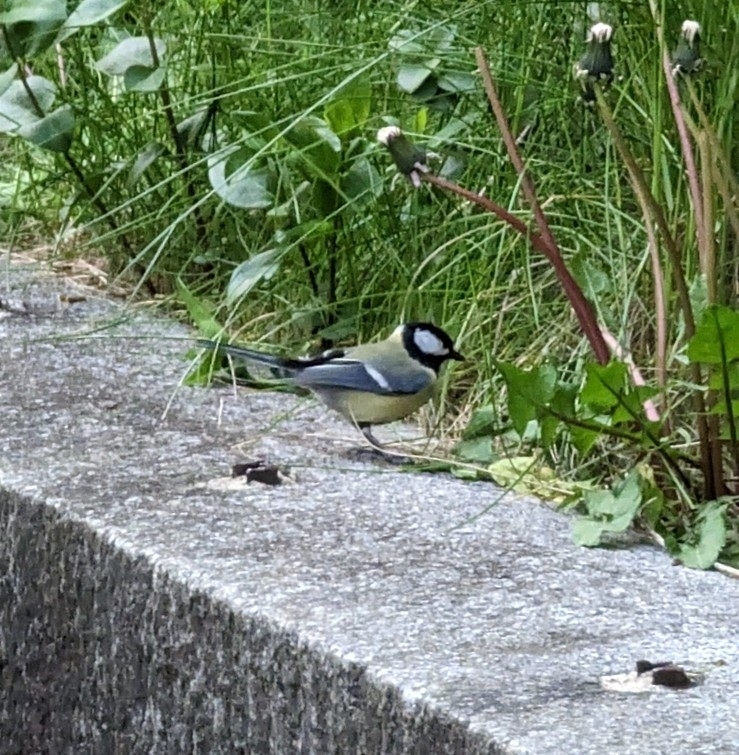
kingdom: Animalia
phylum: Chordata
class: Aves
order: Passeriformes
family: Paridae
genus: Parus
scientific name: Parus major
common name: Great tit
